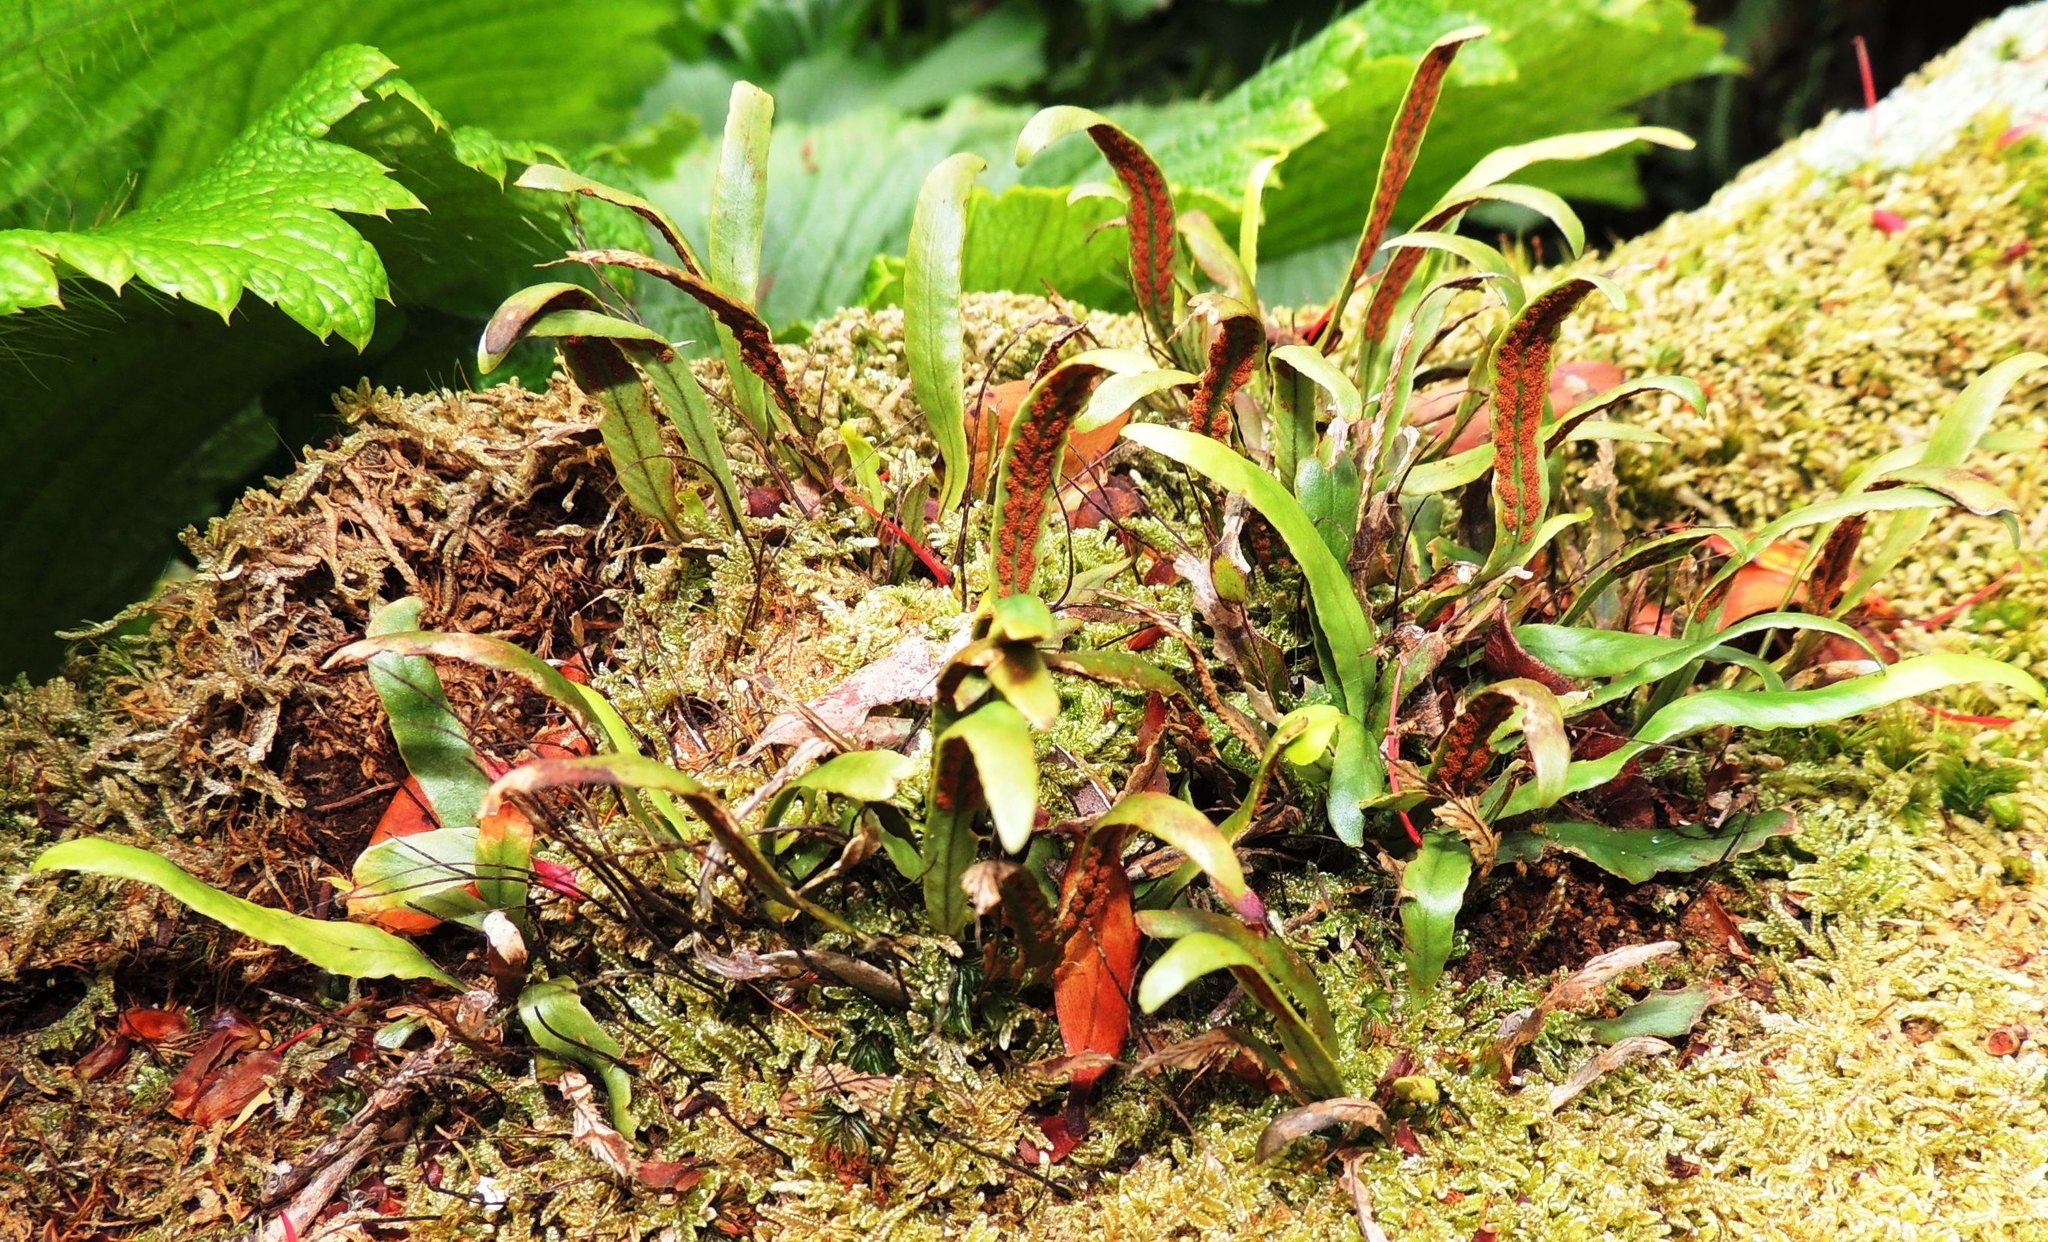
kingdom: Plantae
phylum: Tracheophyta
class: Polypodiopsida
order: Polypodiales
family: Polypodiaceae
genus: Notogrammitis
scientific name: Notogrammitis billardierei
